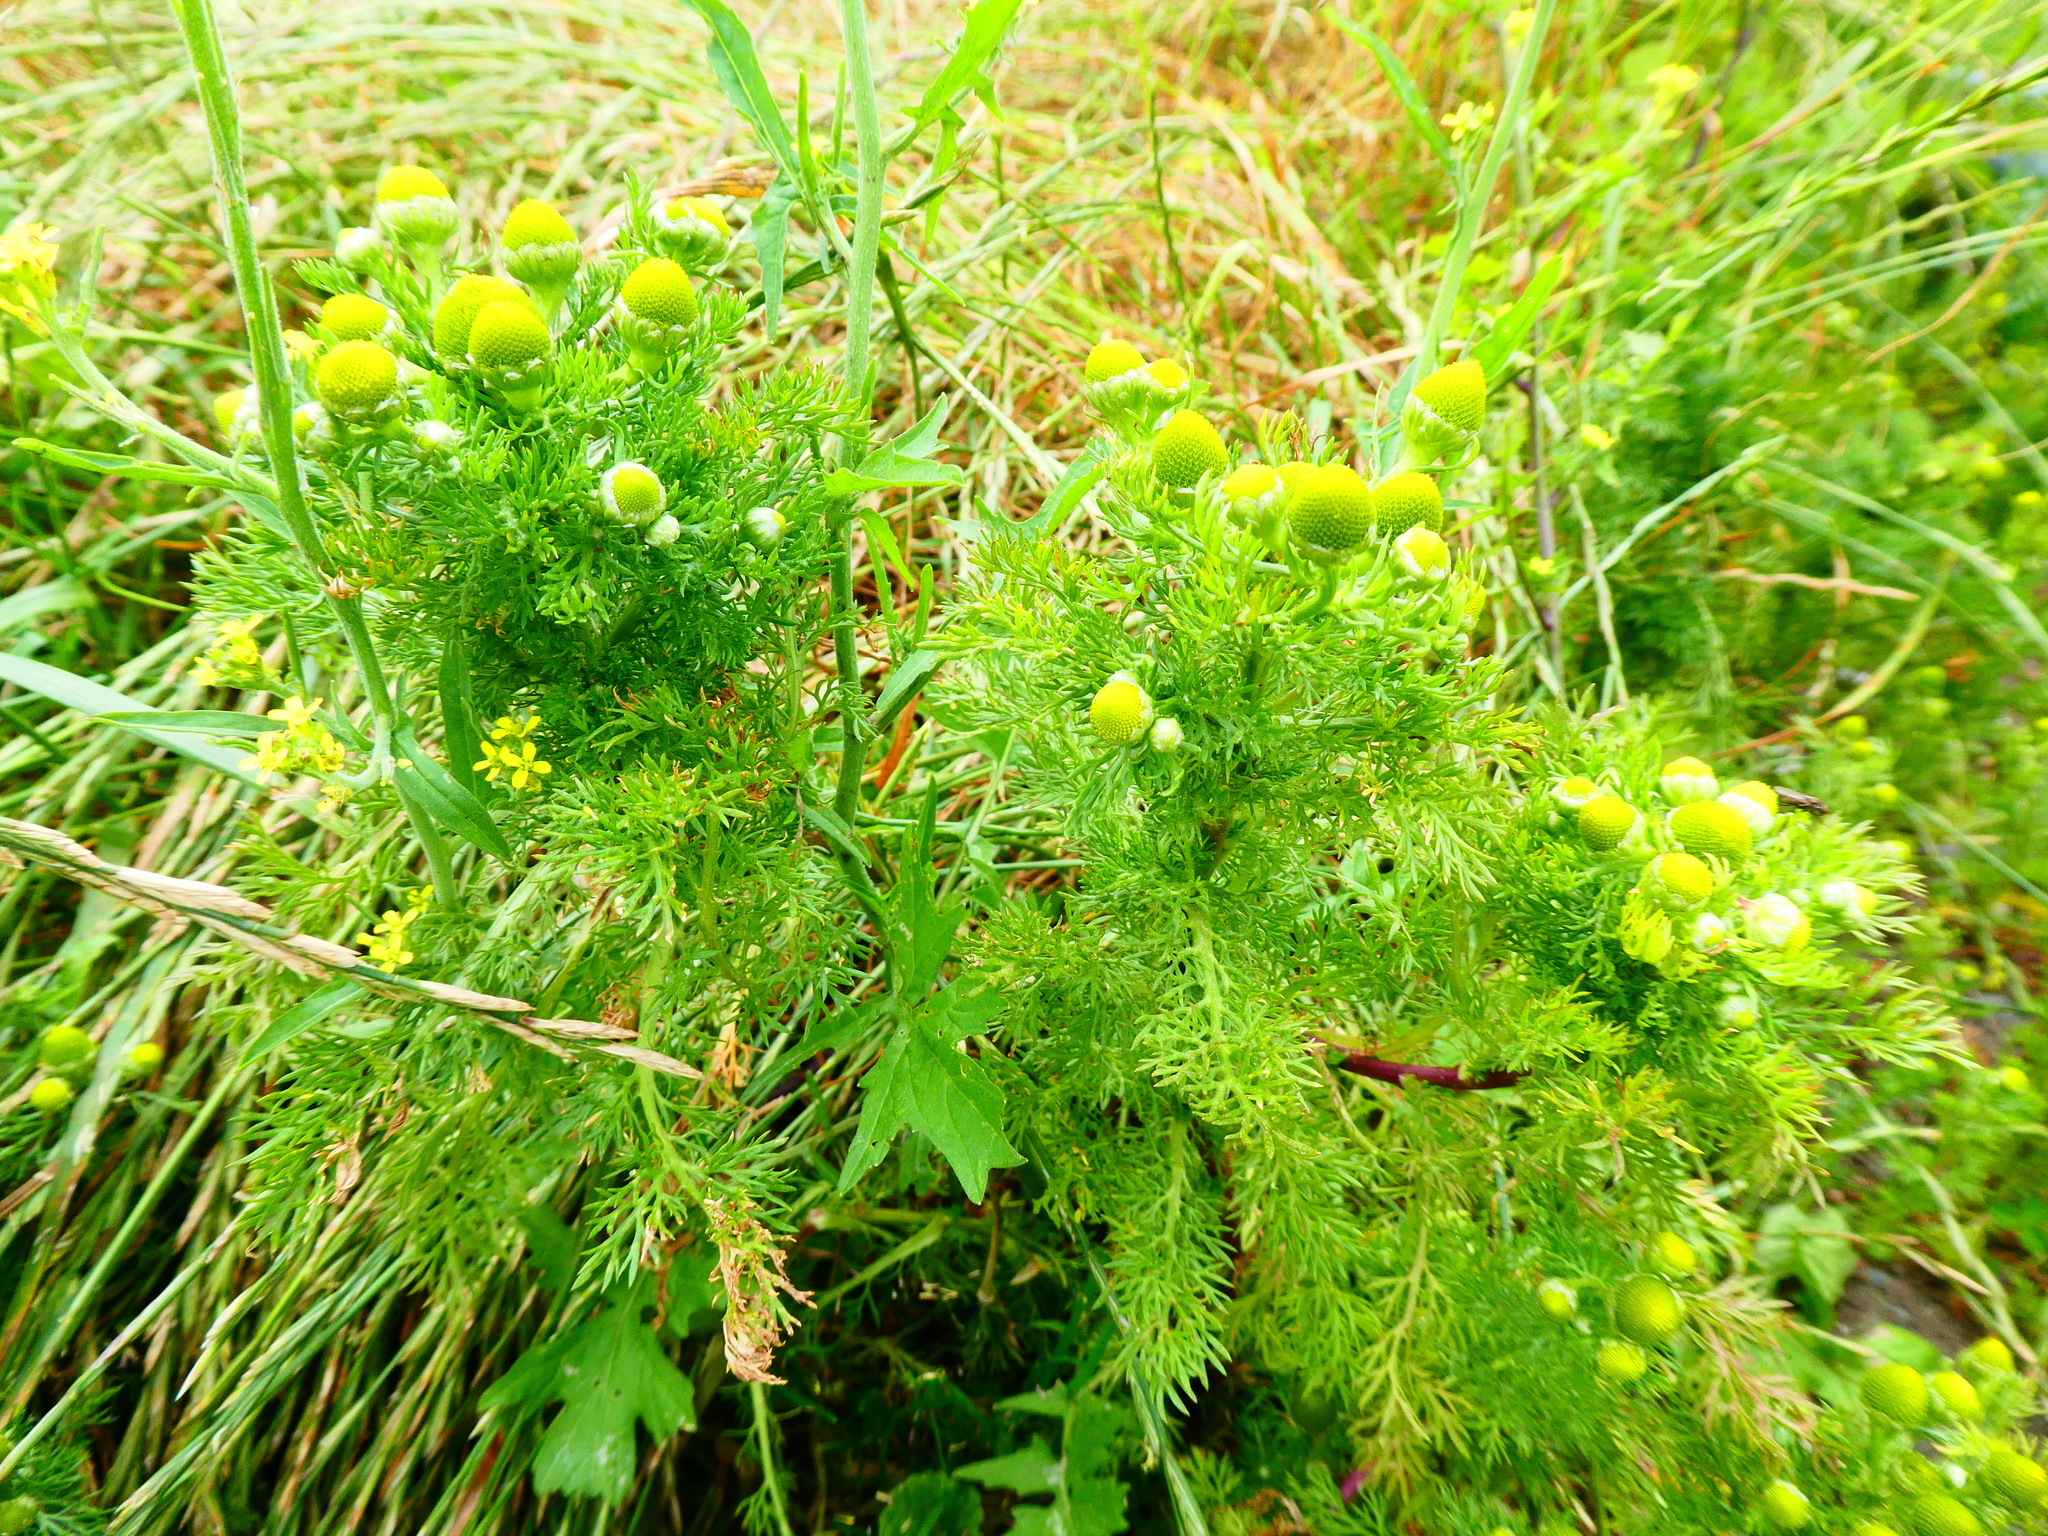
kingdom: Plantae
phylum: Tracheophyta
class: Magnoliopsida
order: Asterales
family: Asteraceae
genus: Matricaria
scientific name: Matricaria discoidea
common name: Disc mayweed
